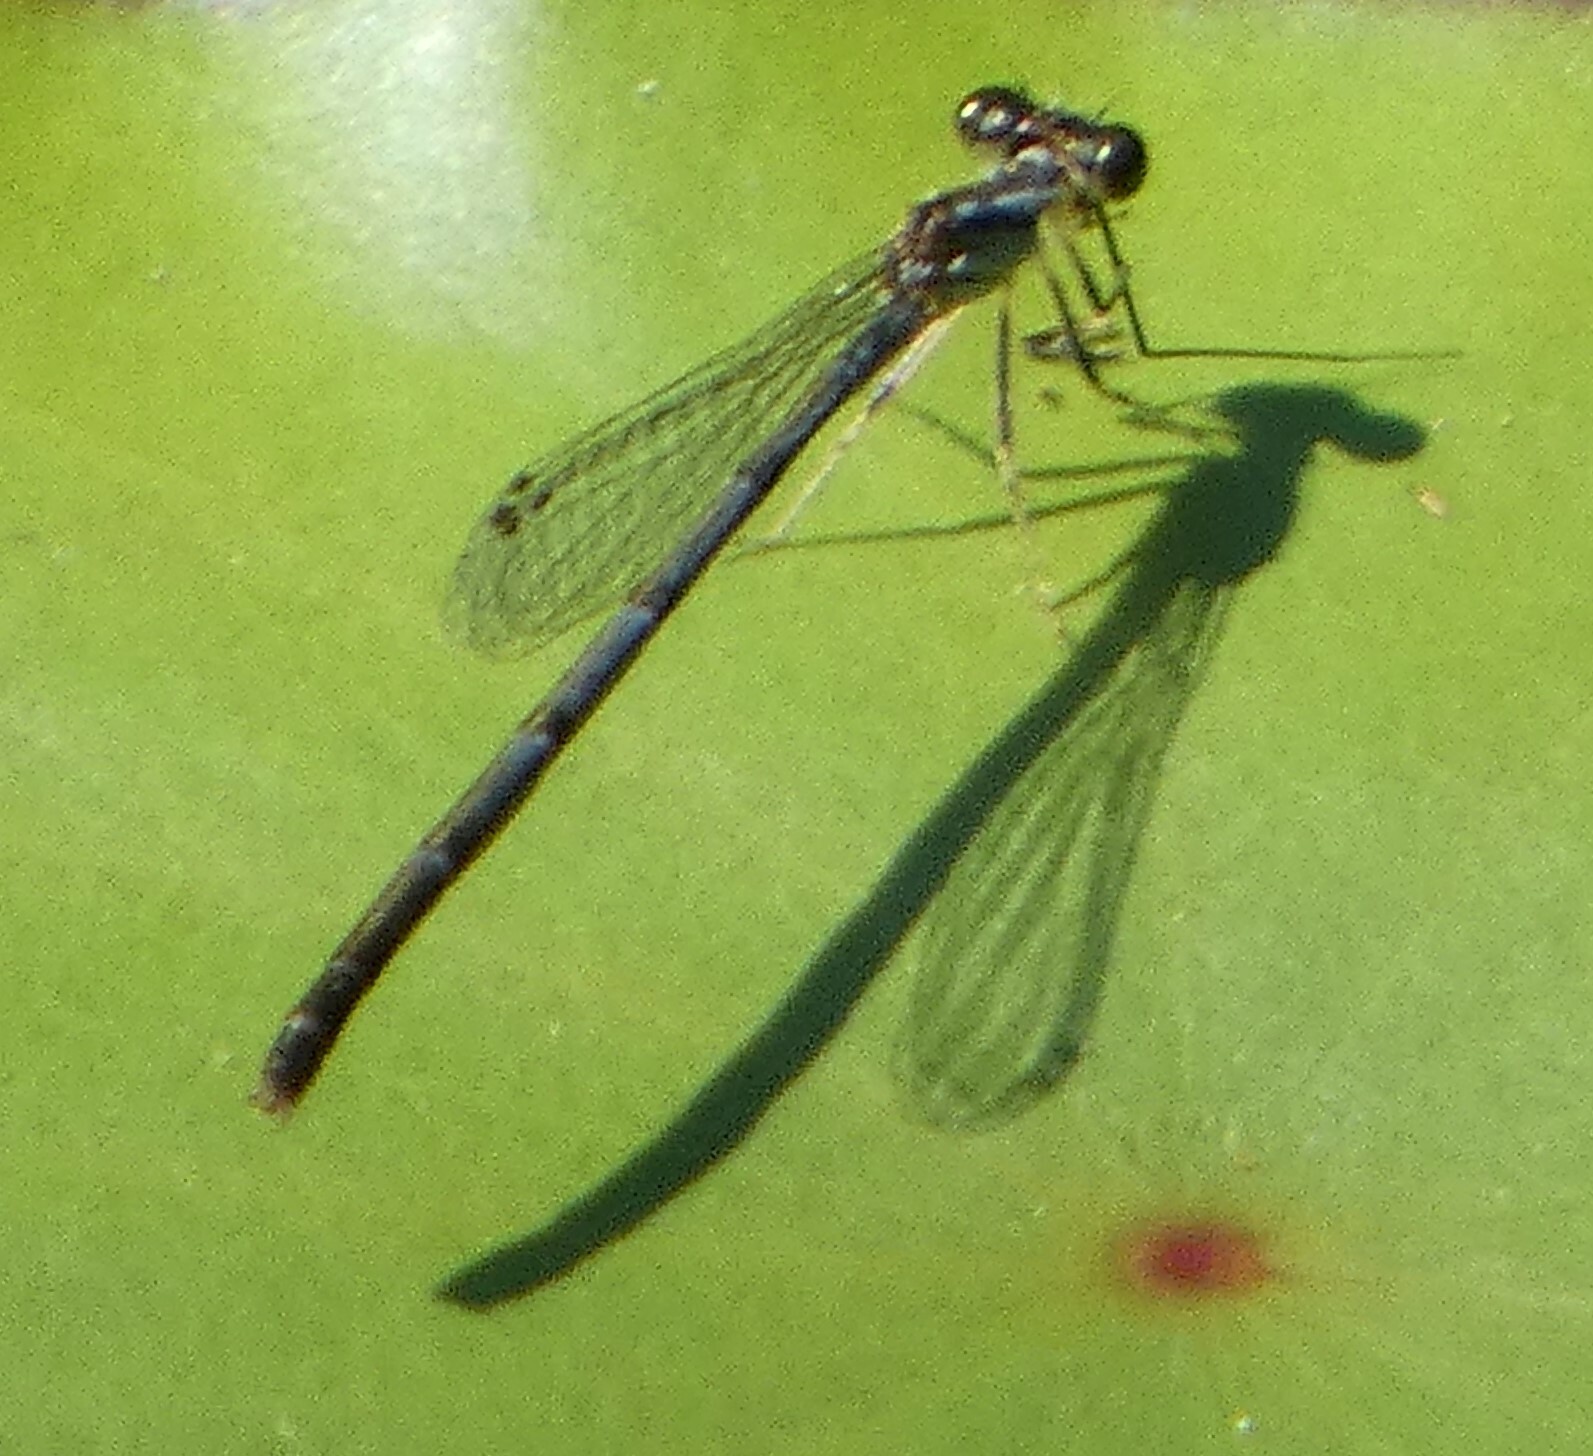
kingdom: Animalia
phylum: Arthropoda
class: Insecta
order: Odonata
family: Coenagrionidae
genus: Ischnura
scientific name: Ischnura posita
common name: Fragile forktail
